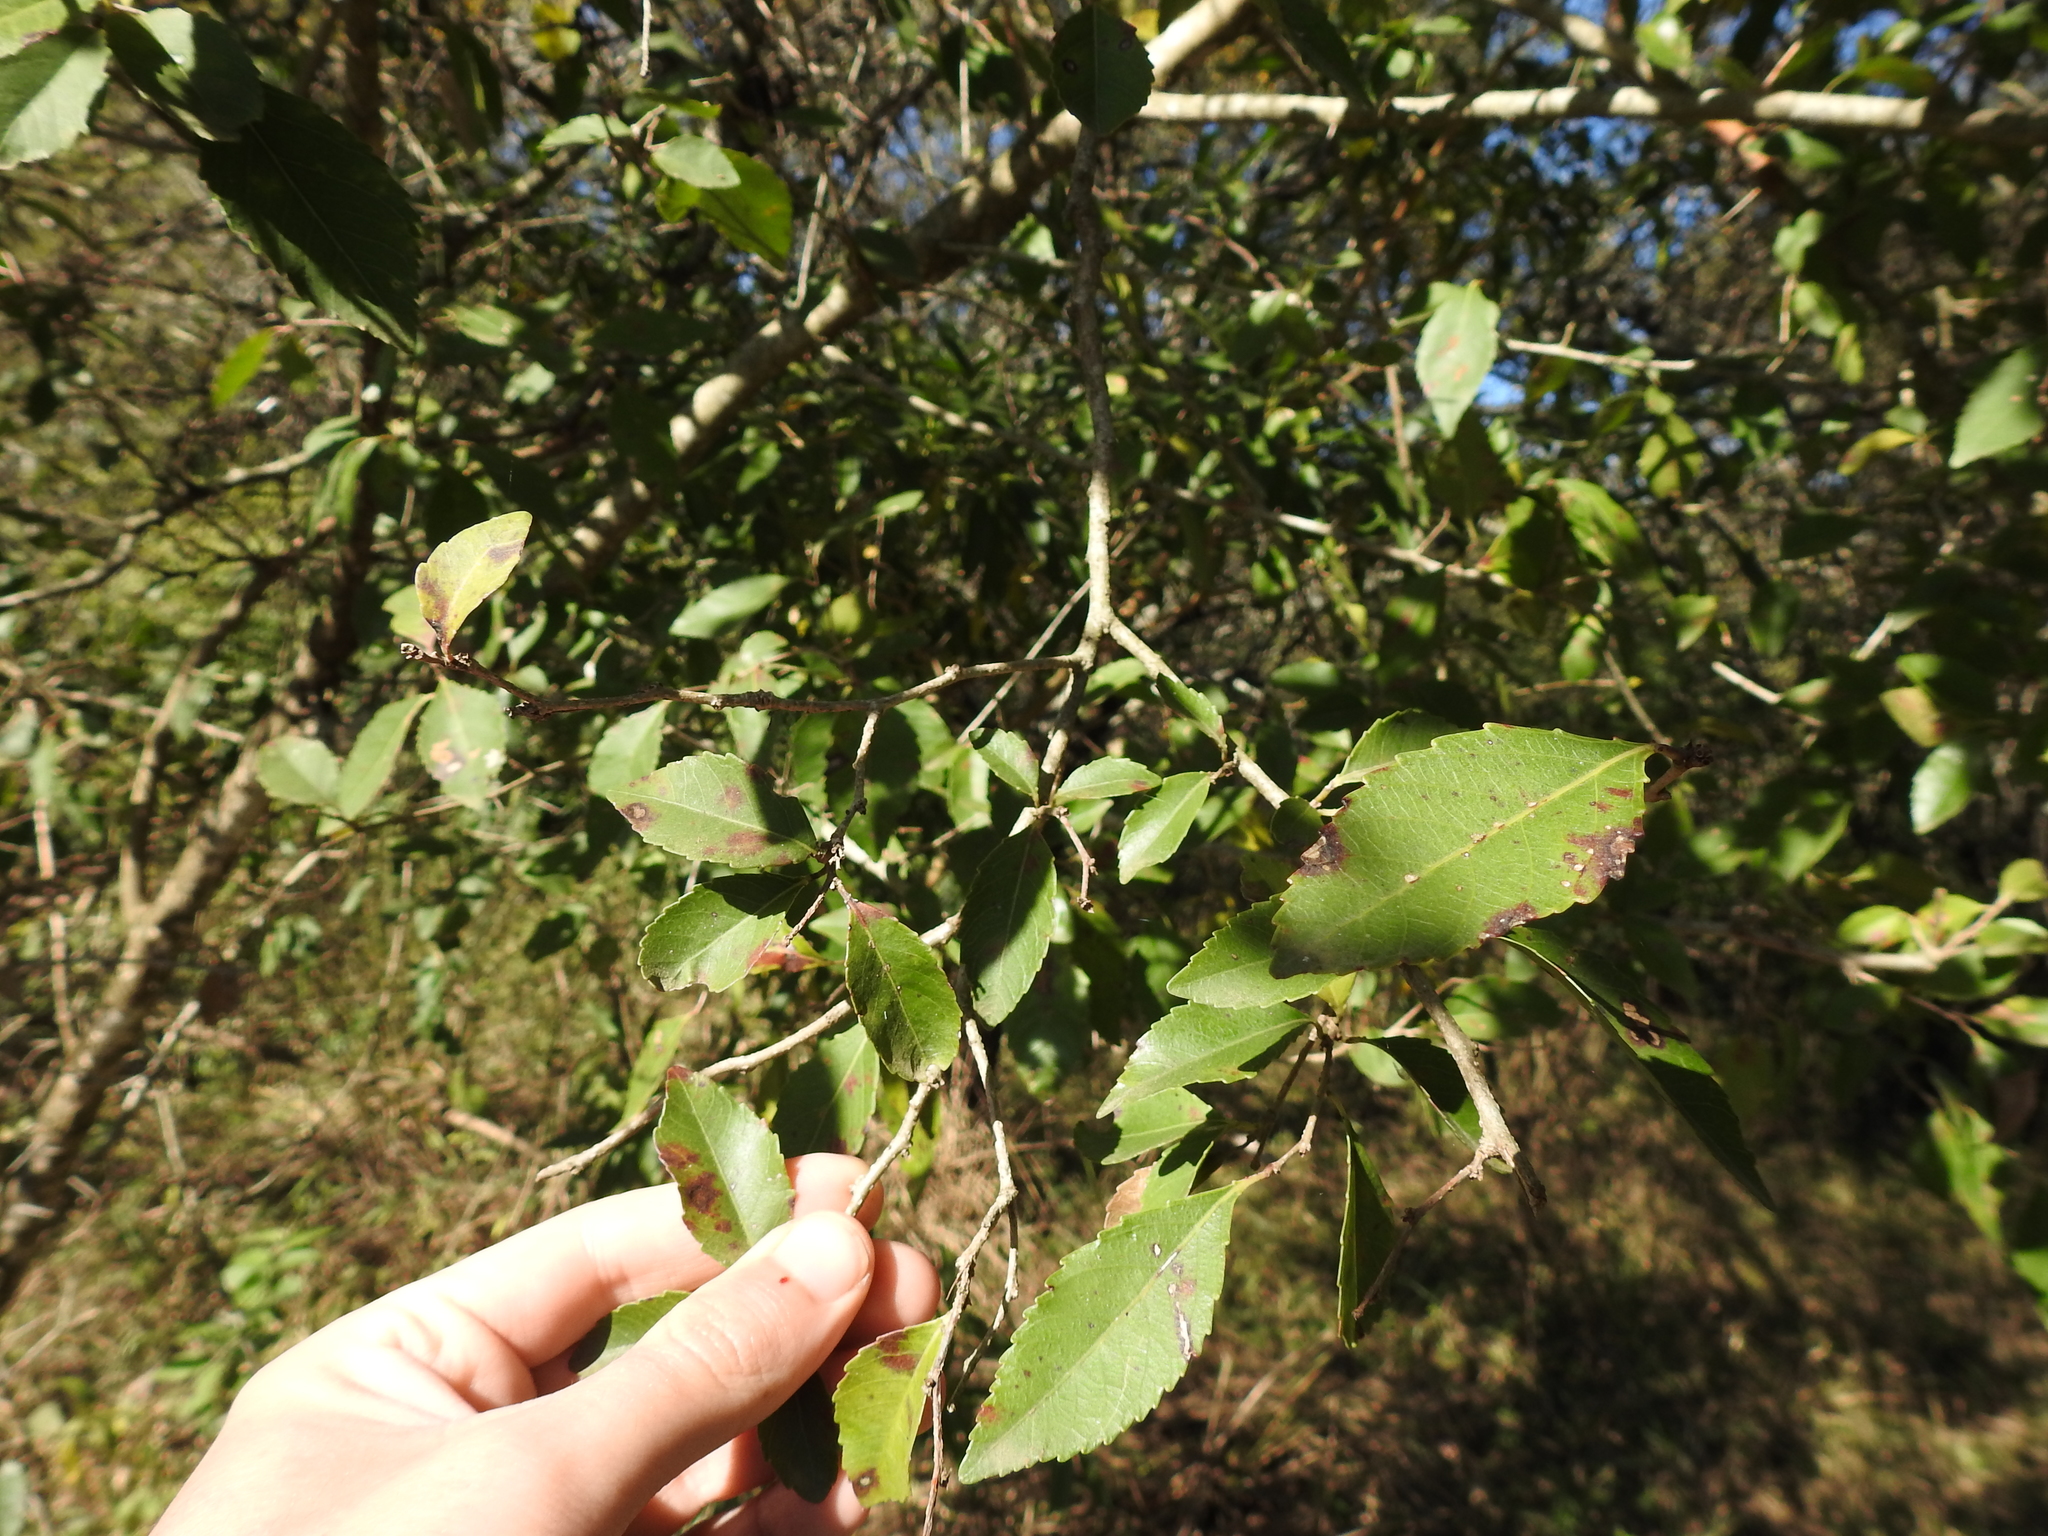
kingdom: Plantae
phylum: Tracheophyta
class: Magnoliopsida
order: Malpighiales
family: Salicaceae
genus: Xylosma
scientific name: Xylosma venosa
